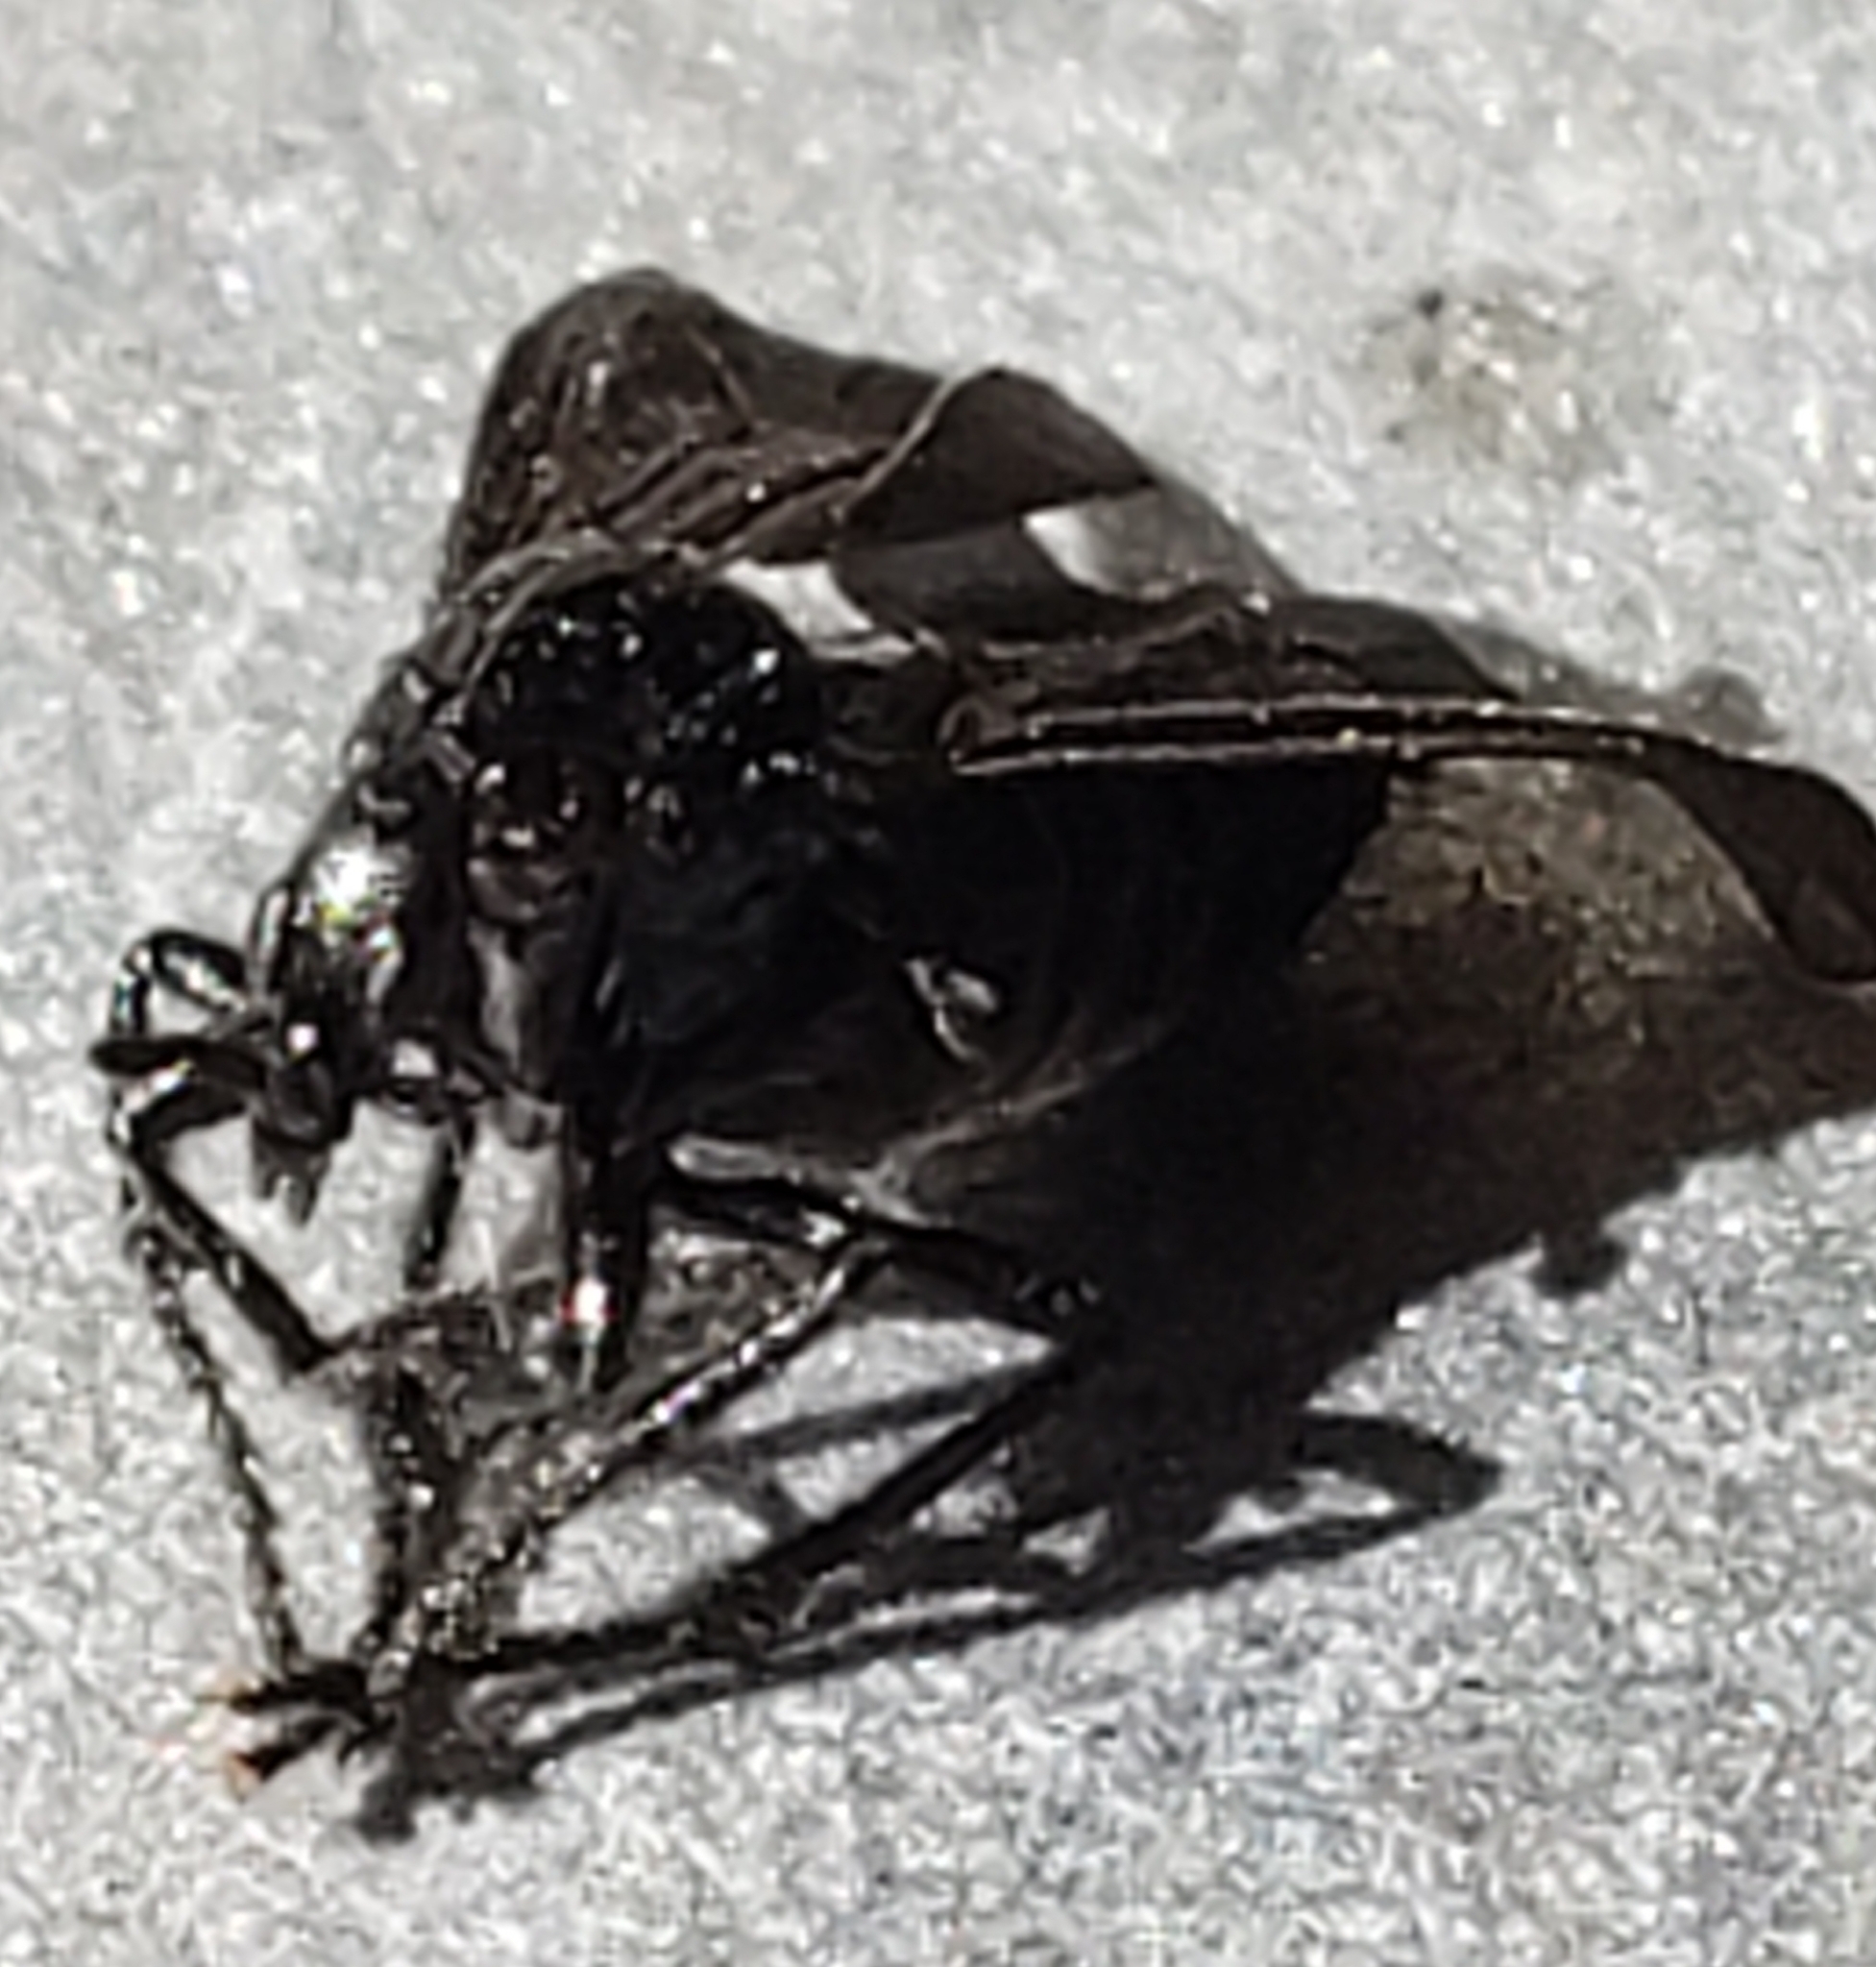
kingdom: Animalia
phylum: Arthropoda
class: Insecta
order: Diptera
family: Bibionidae
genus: Dilophus
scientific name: Dilophus orbatus
